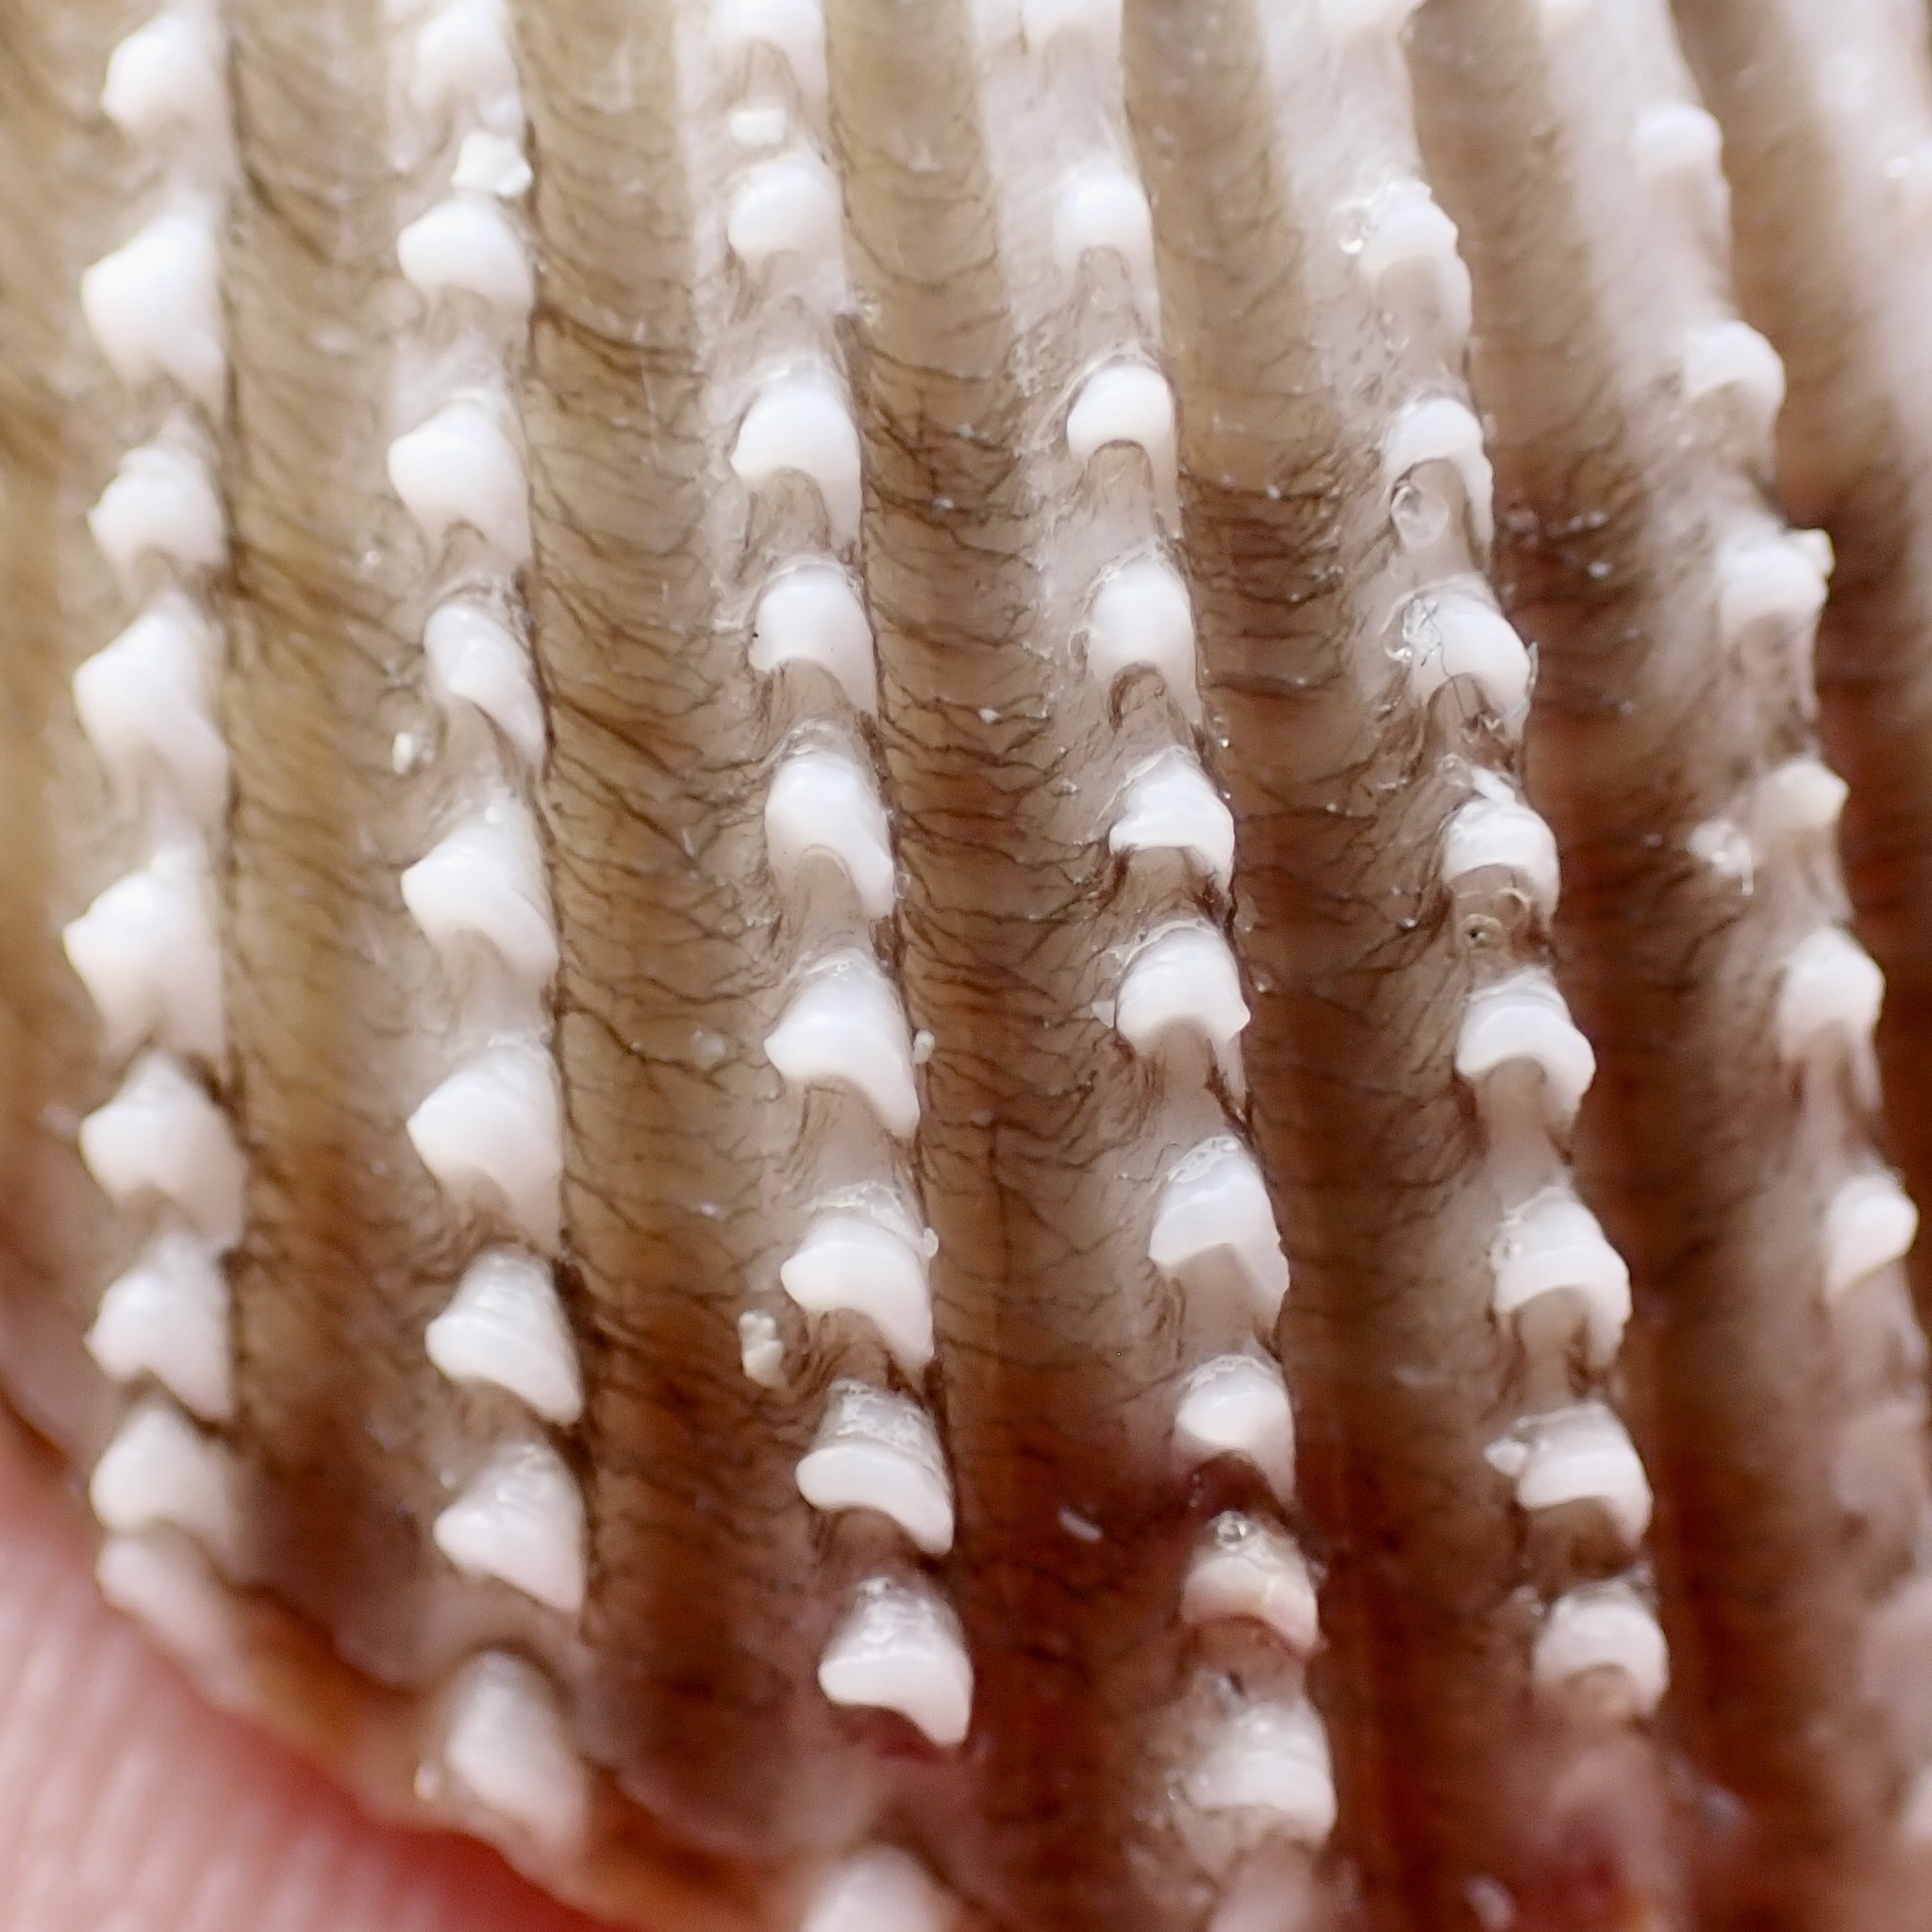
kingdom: Animalia
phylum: Mollusca
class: Bivalvia
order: Cardiida
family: Cardiidae
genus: Trachycardium
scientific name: Trachycardium egmontianum
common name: Florida pricklycockle
